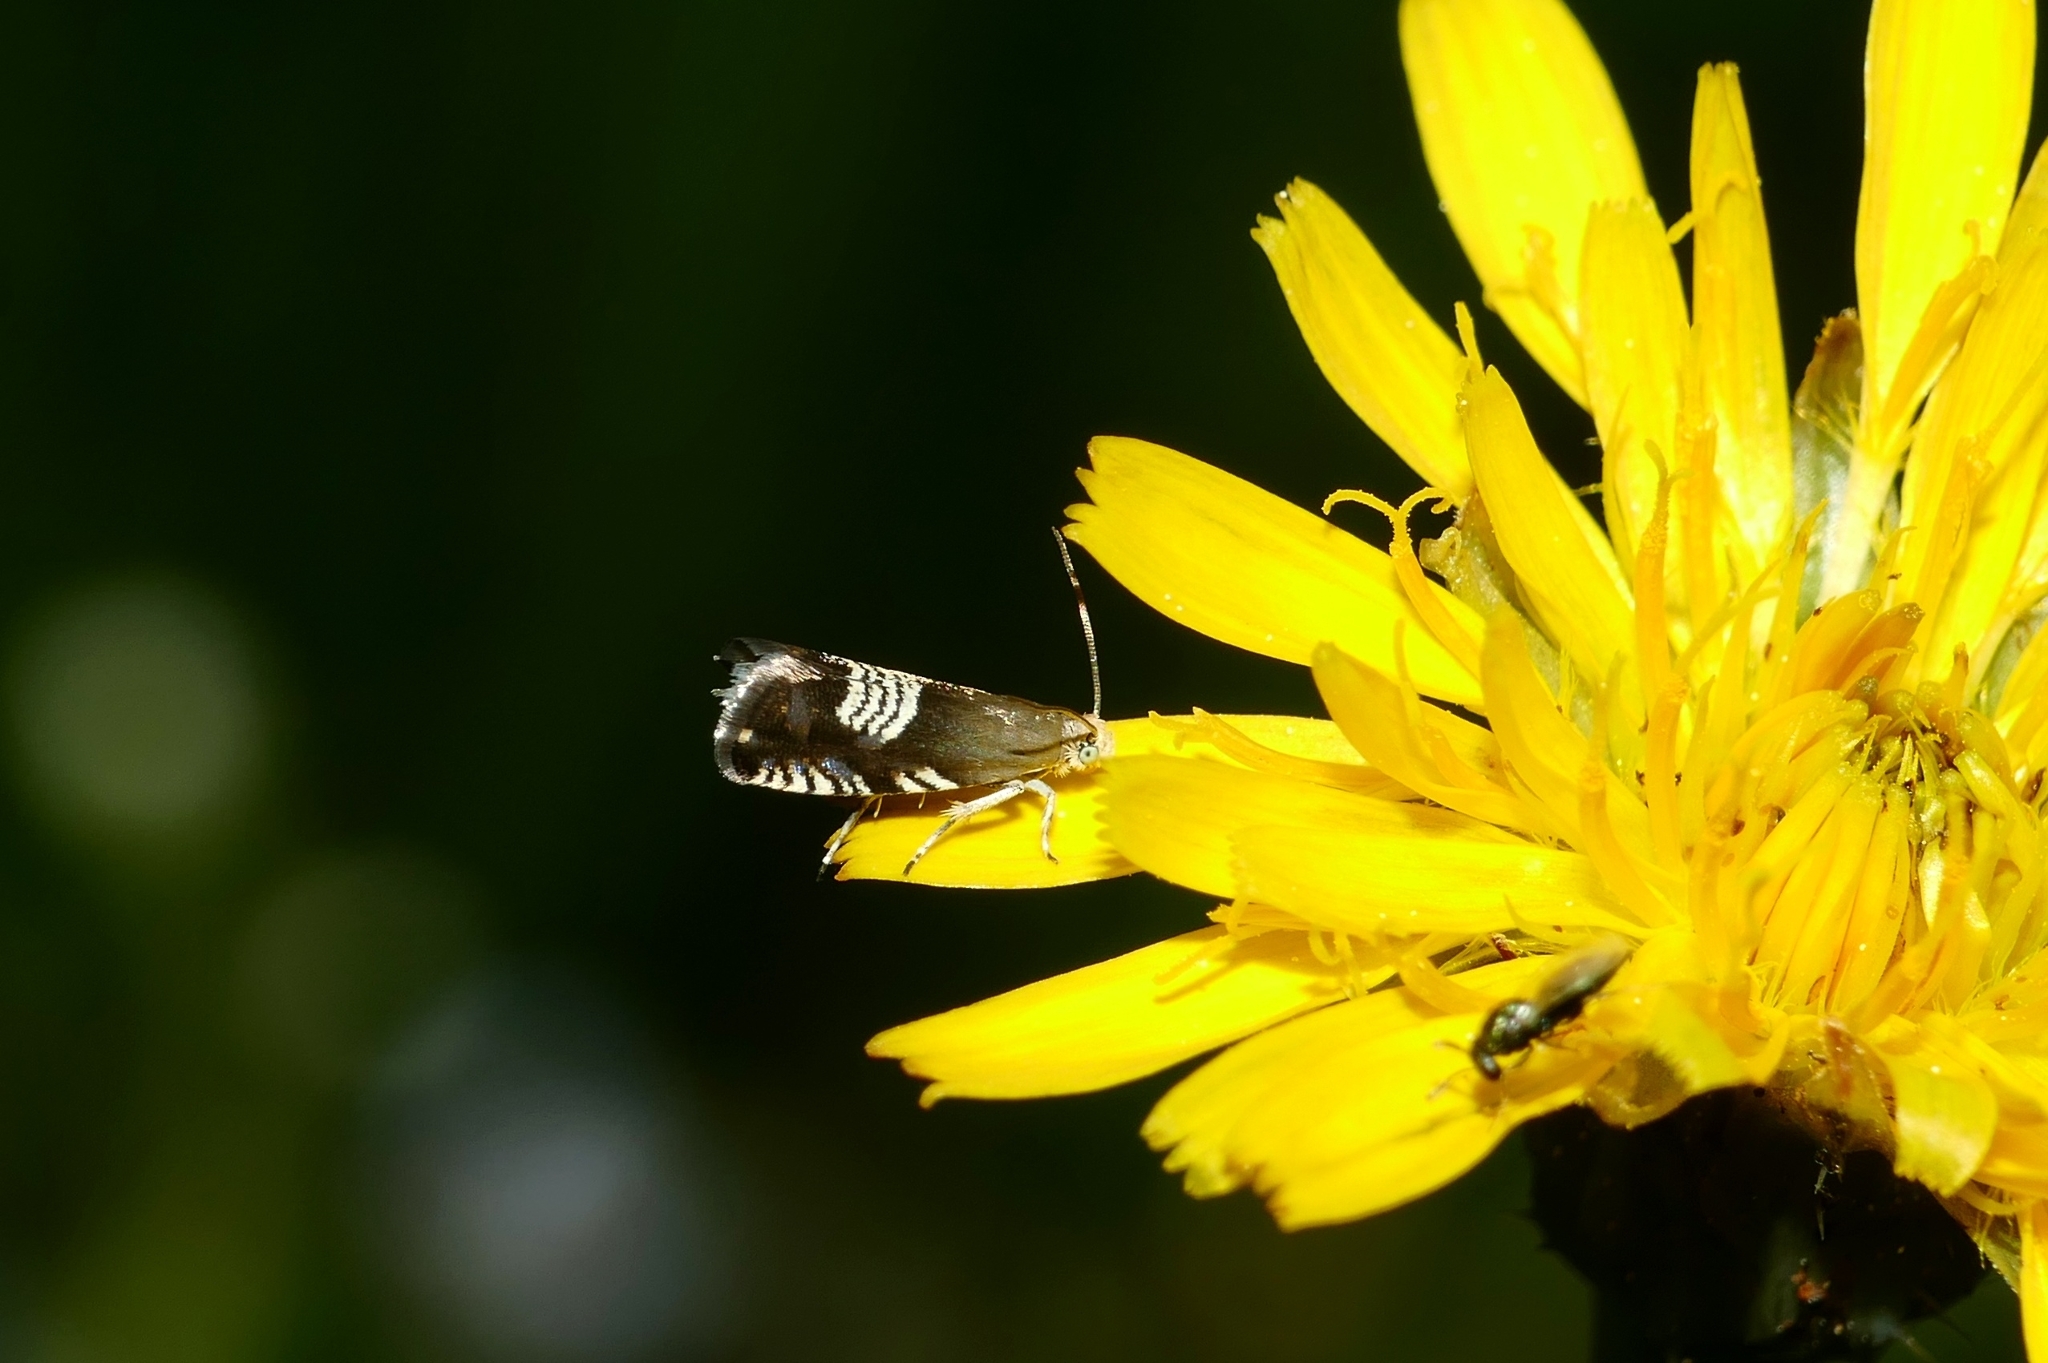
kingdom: Animalia
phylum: Arthropoda
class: Insecta
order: Lepidoptera
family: Tortricidae
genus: Grapholita
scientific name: Grapholita compositella
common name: Triple-stripe piercer
